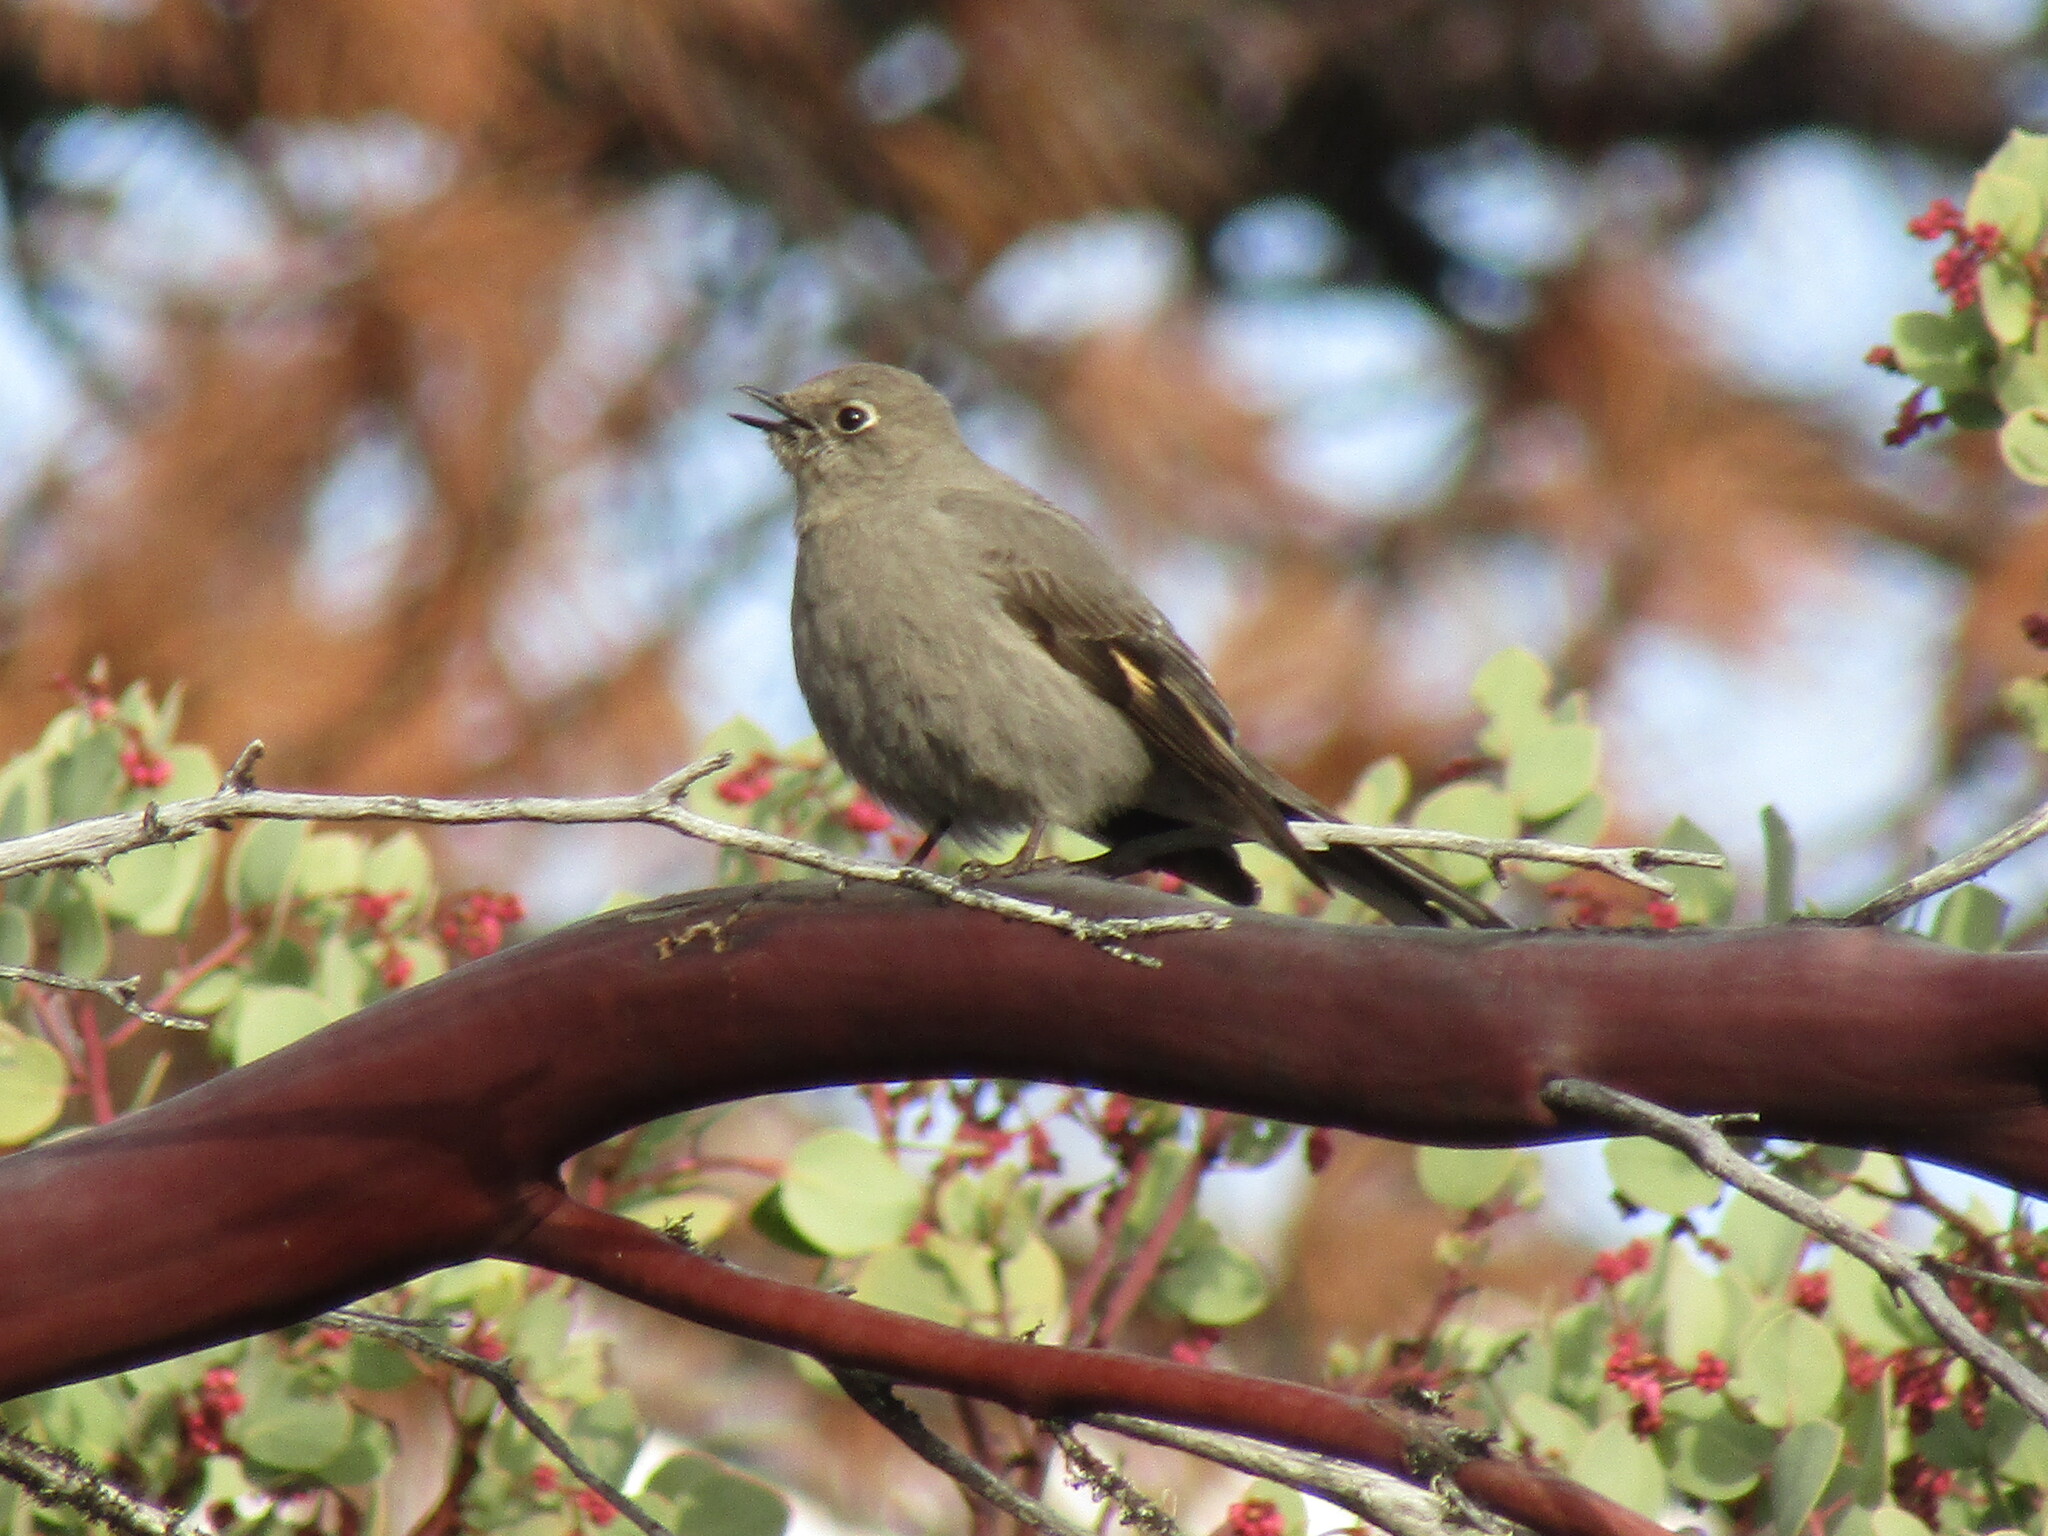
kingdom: Animalia
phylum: Chordata
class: Aves
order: Passeriformes
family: Turdidae
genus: Myadestes
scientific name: Myadestes townsendi
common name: Townsend's solitaire
